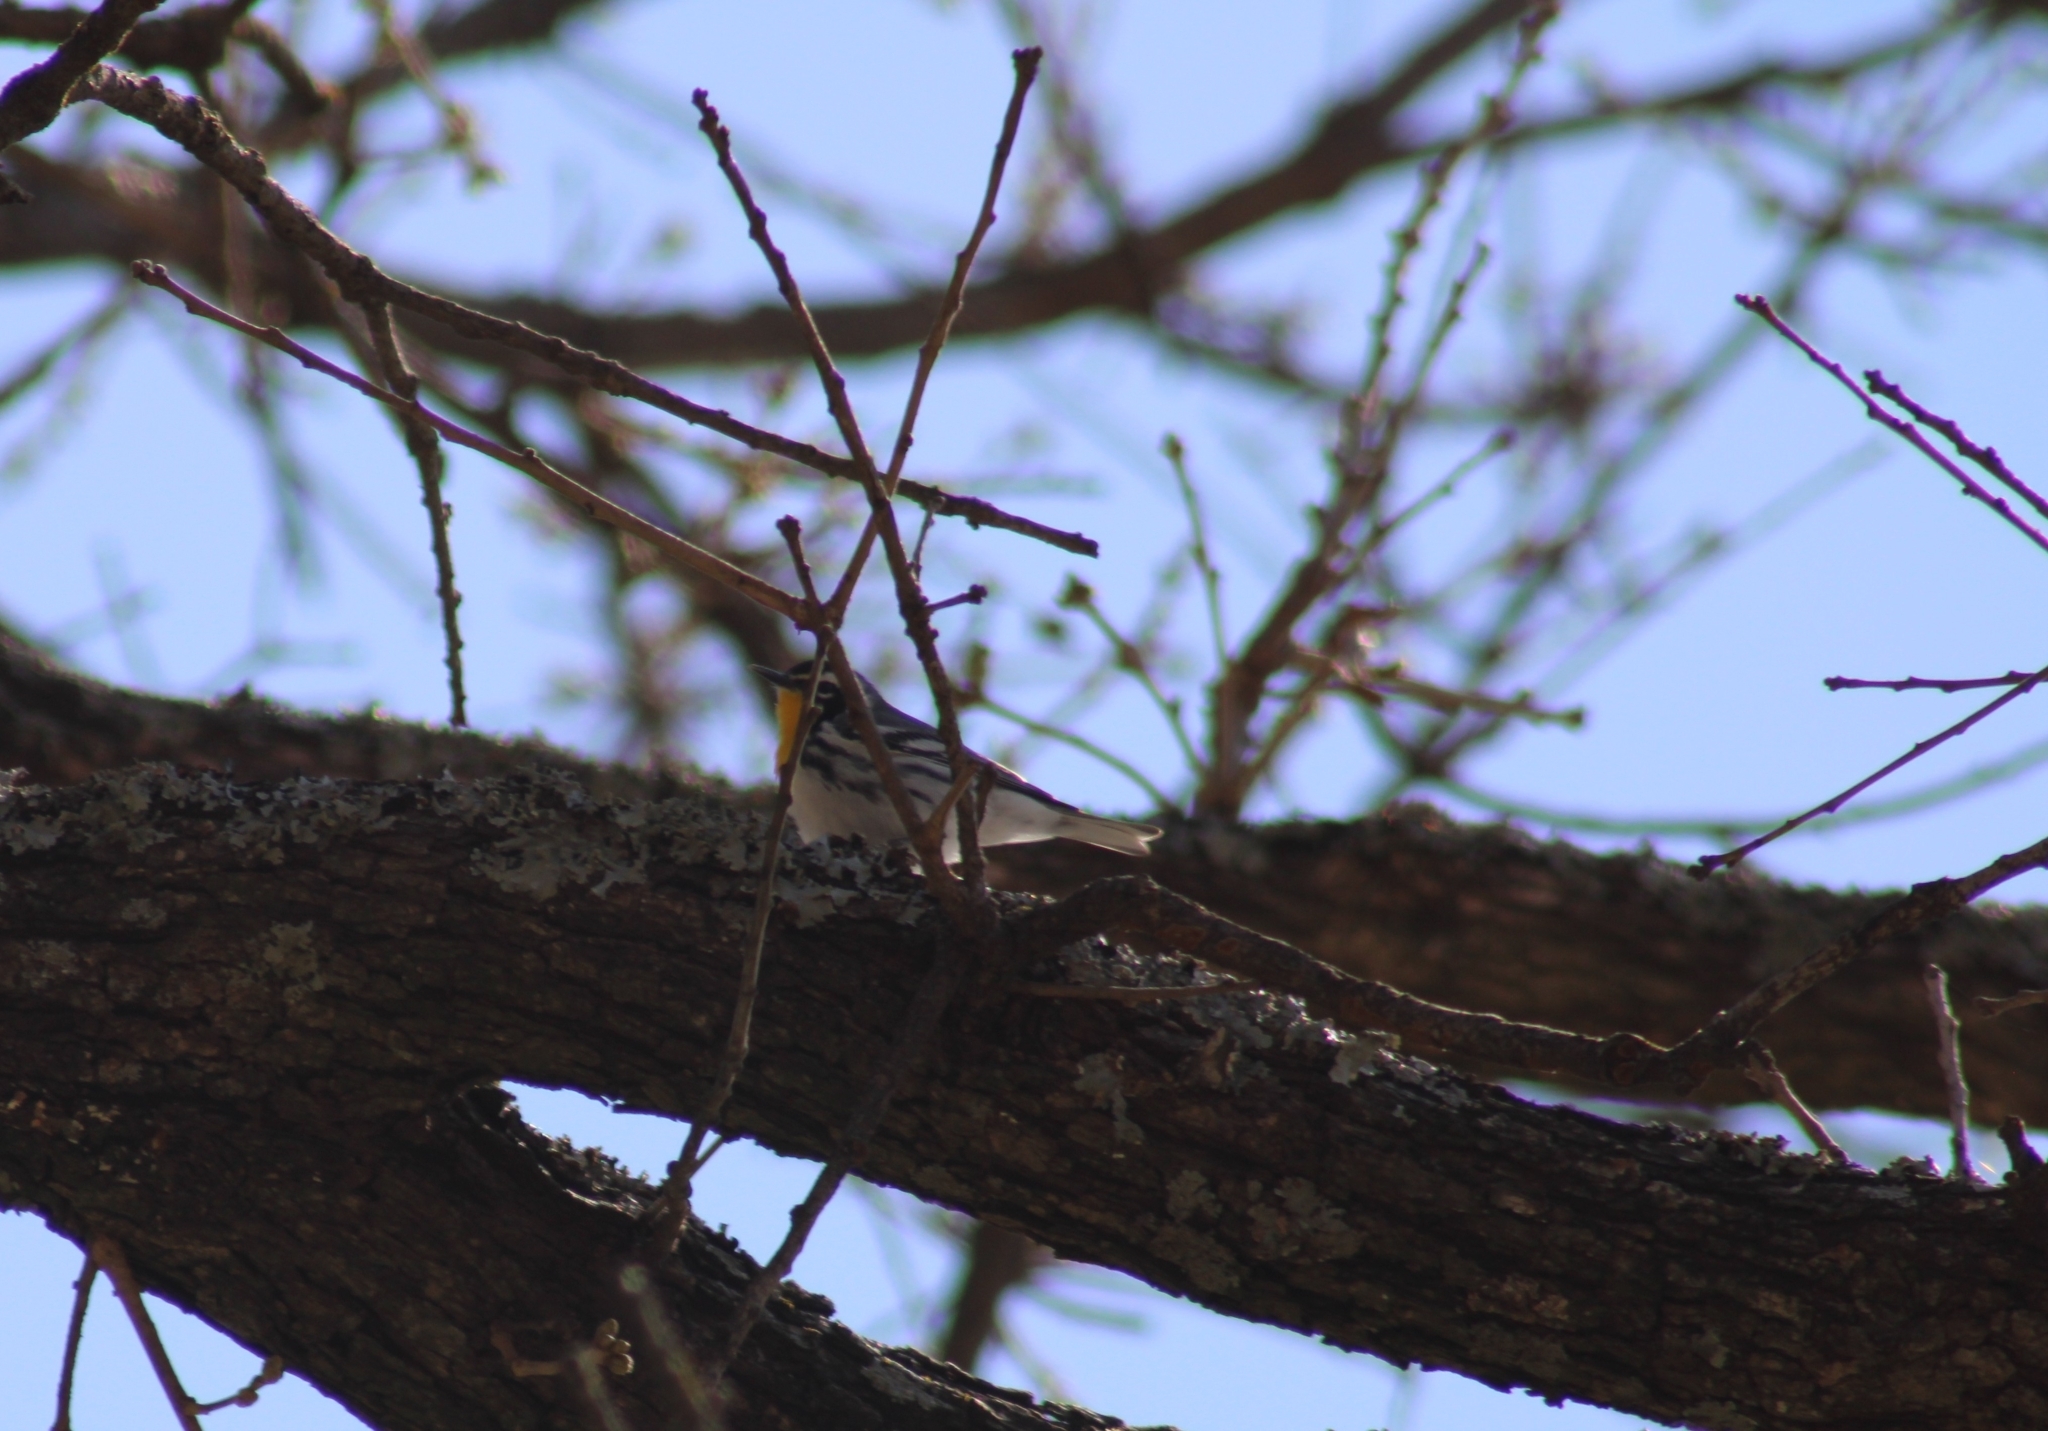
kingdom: Animalia
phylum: Chordata
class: Aves
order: Passeriformes
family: Parulidae
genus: Setophaga
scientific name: Setophaga dominica
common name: Yellow-throated warbler
